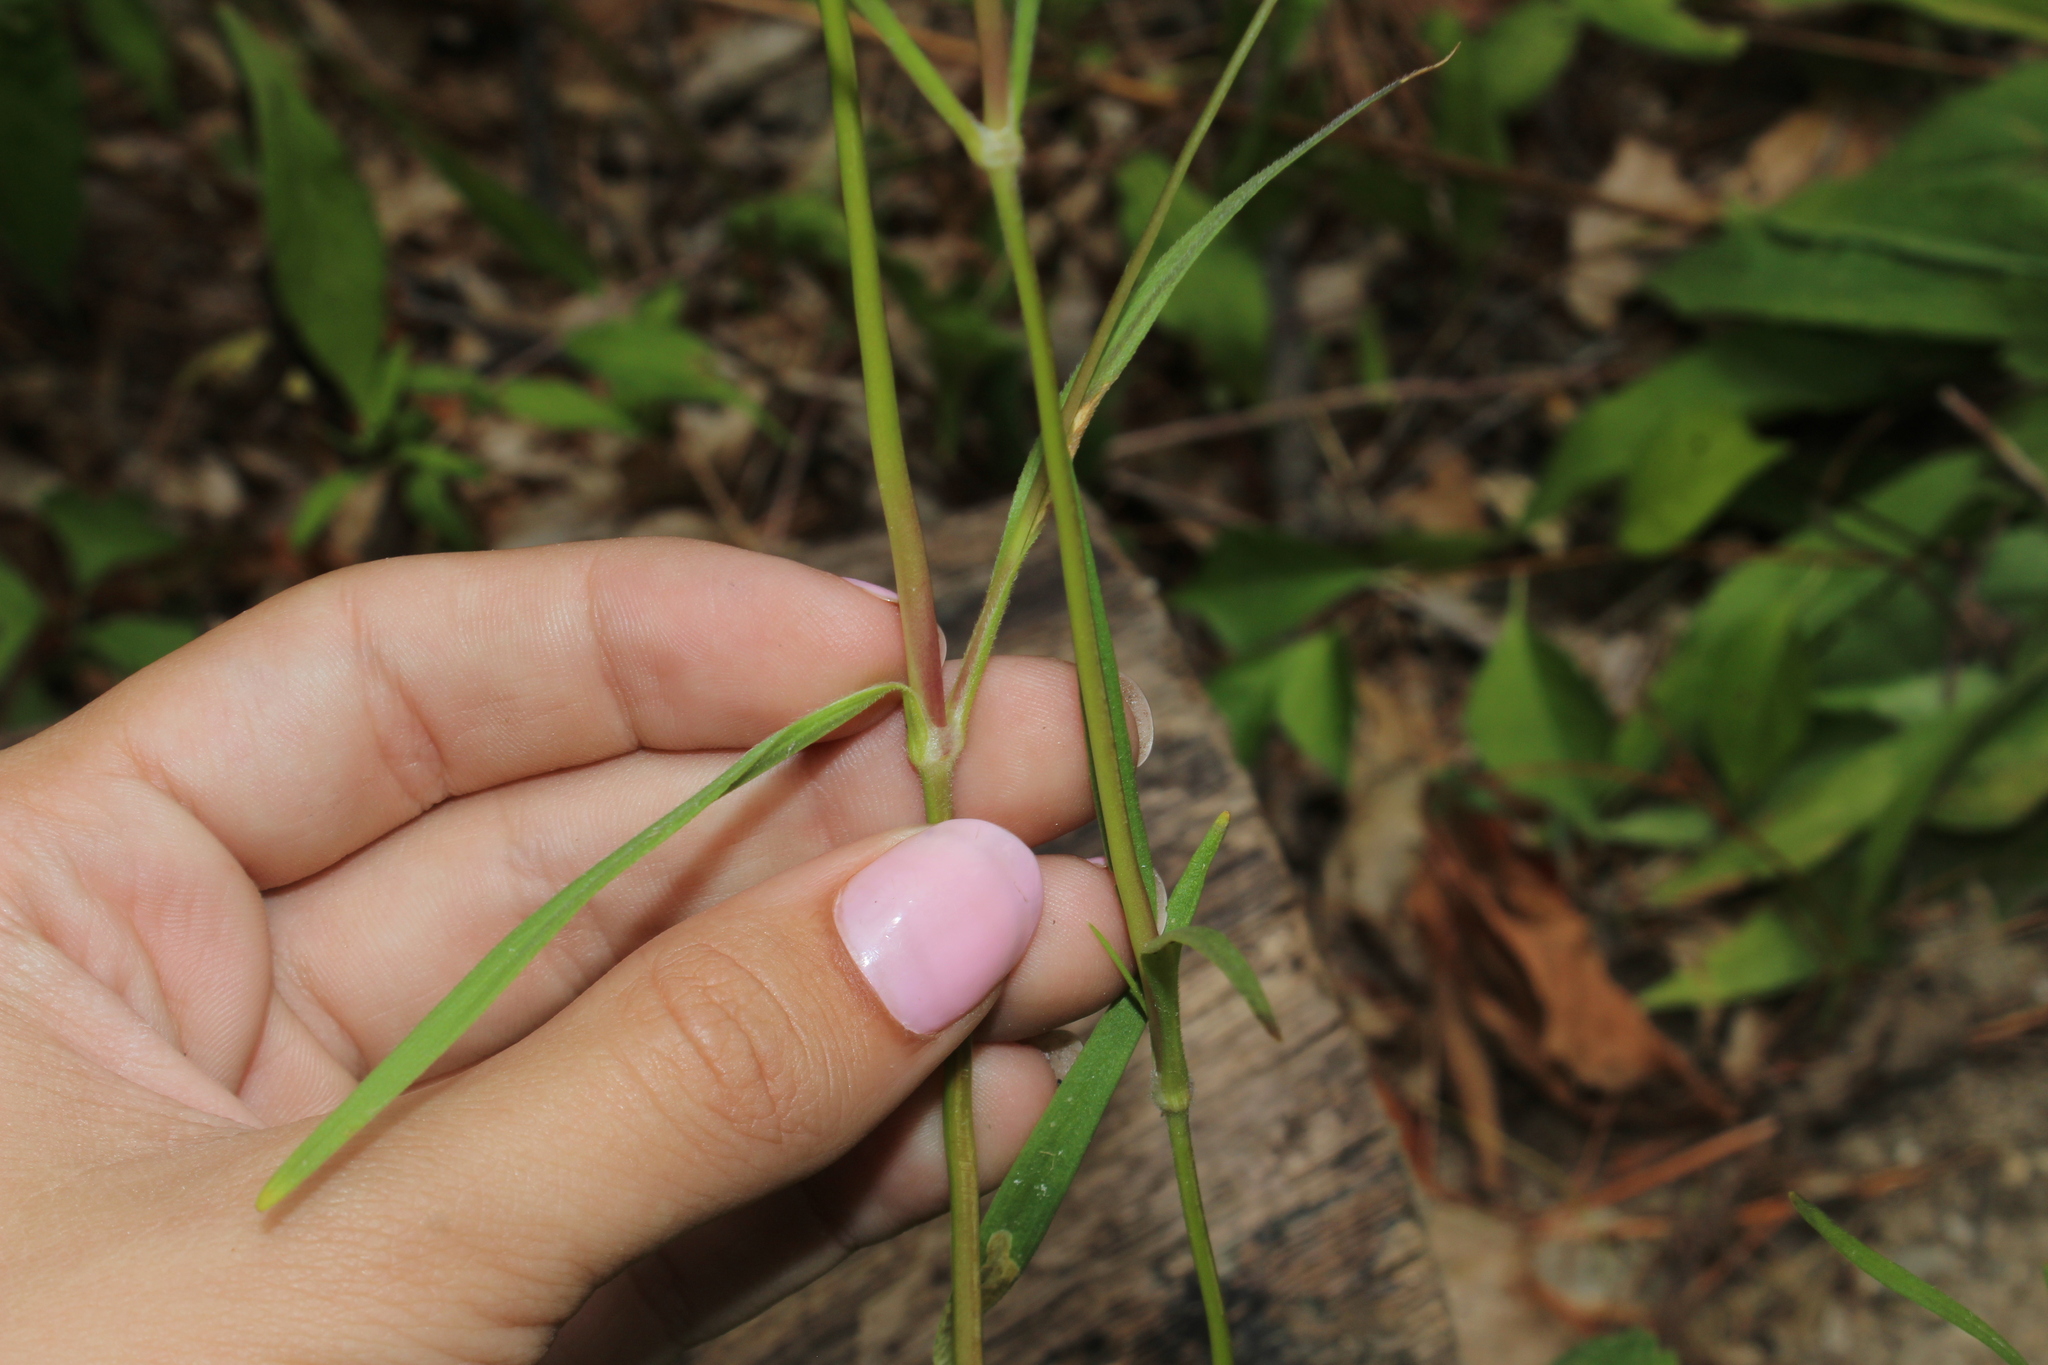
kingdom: Plantae
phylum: Tracheophyta
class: Magnoliopsida
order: Caryophyllales
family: Caryophyllaceae
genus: Dianthus
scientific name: Dianthus armeria
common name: Deptford pink
